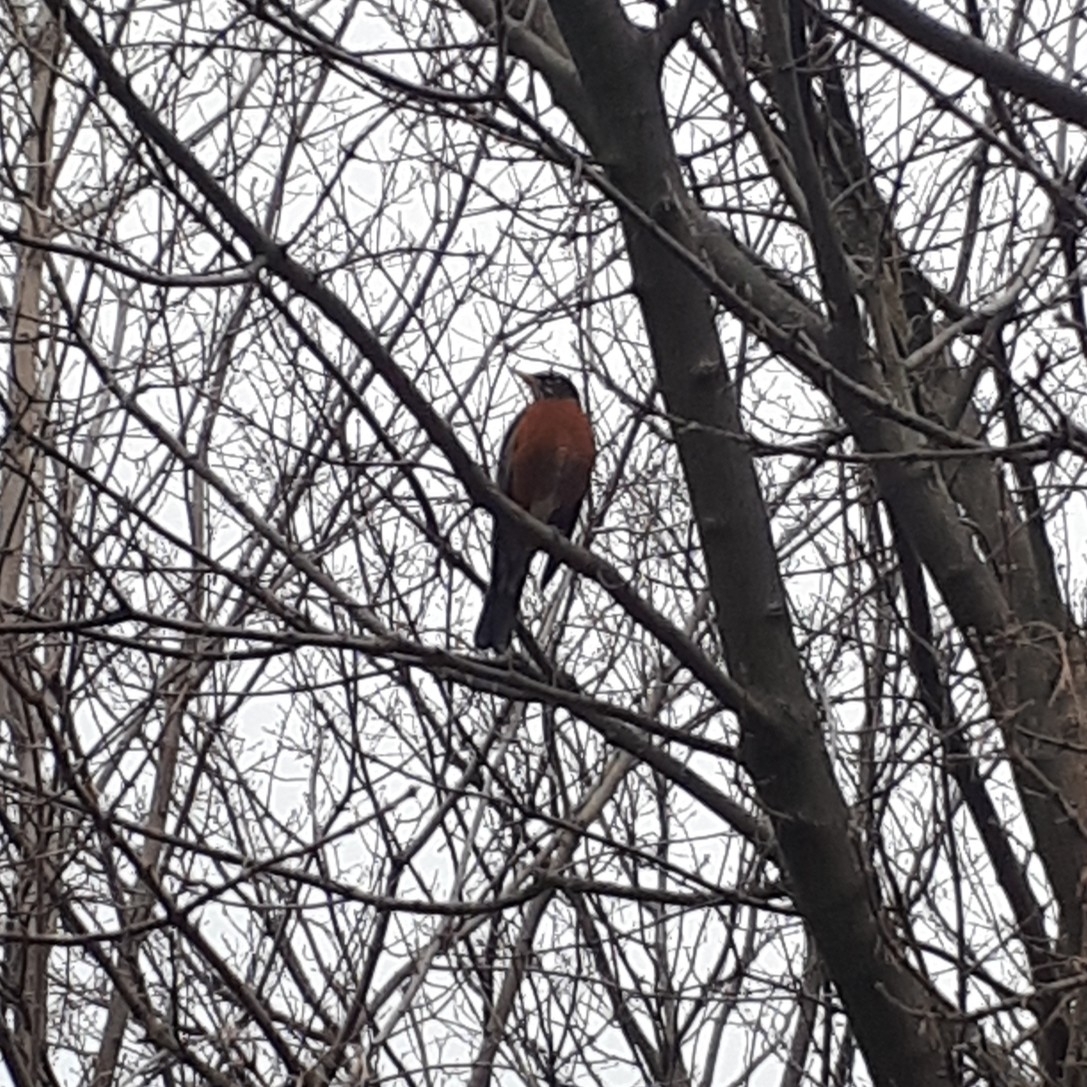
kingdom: Animalia
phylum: Chordata
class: Aves
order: Passeriformes
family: Turdidae
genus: Turdus
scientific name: Turdus migratorius
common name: American robin
